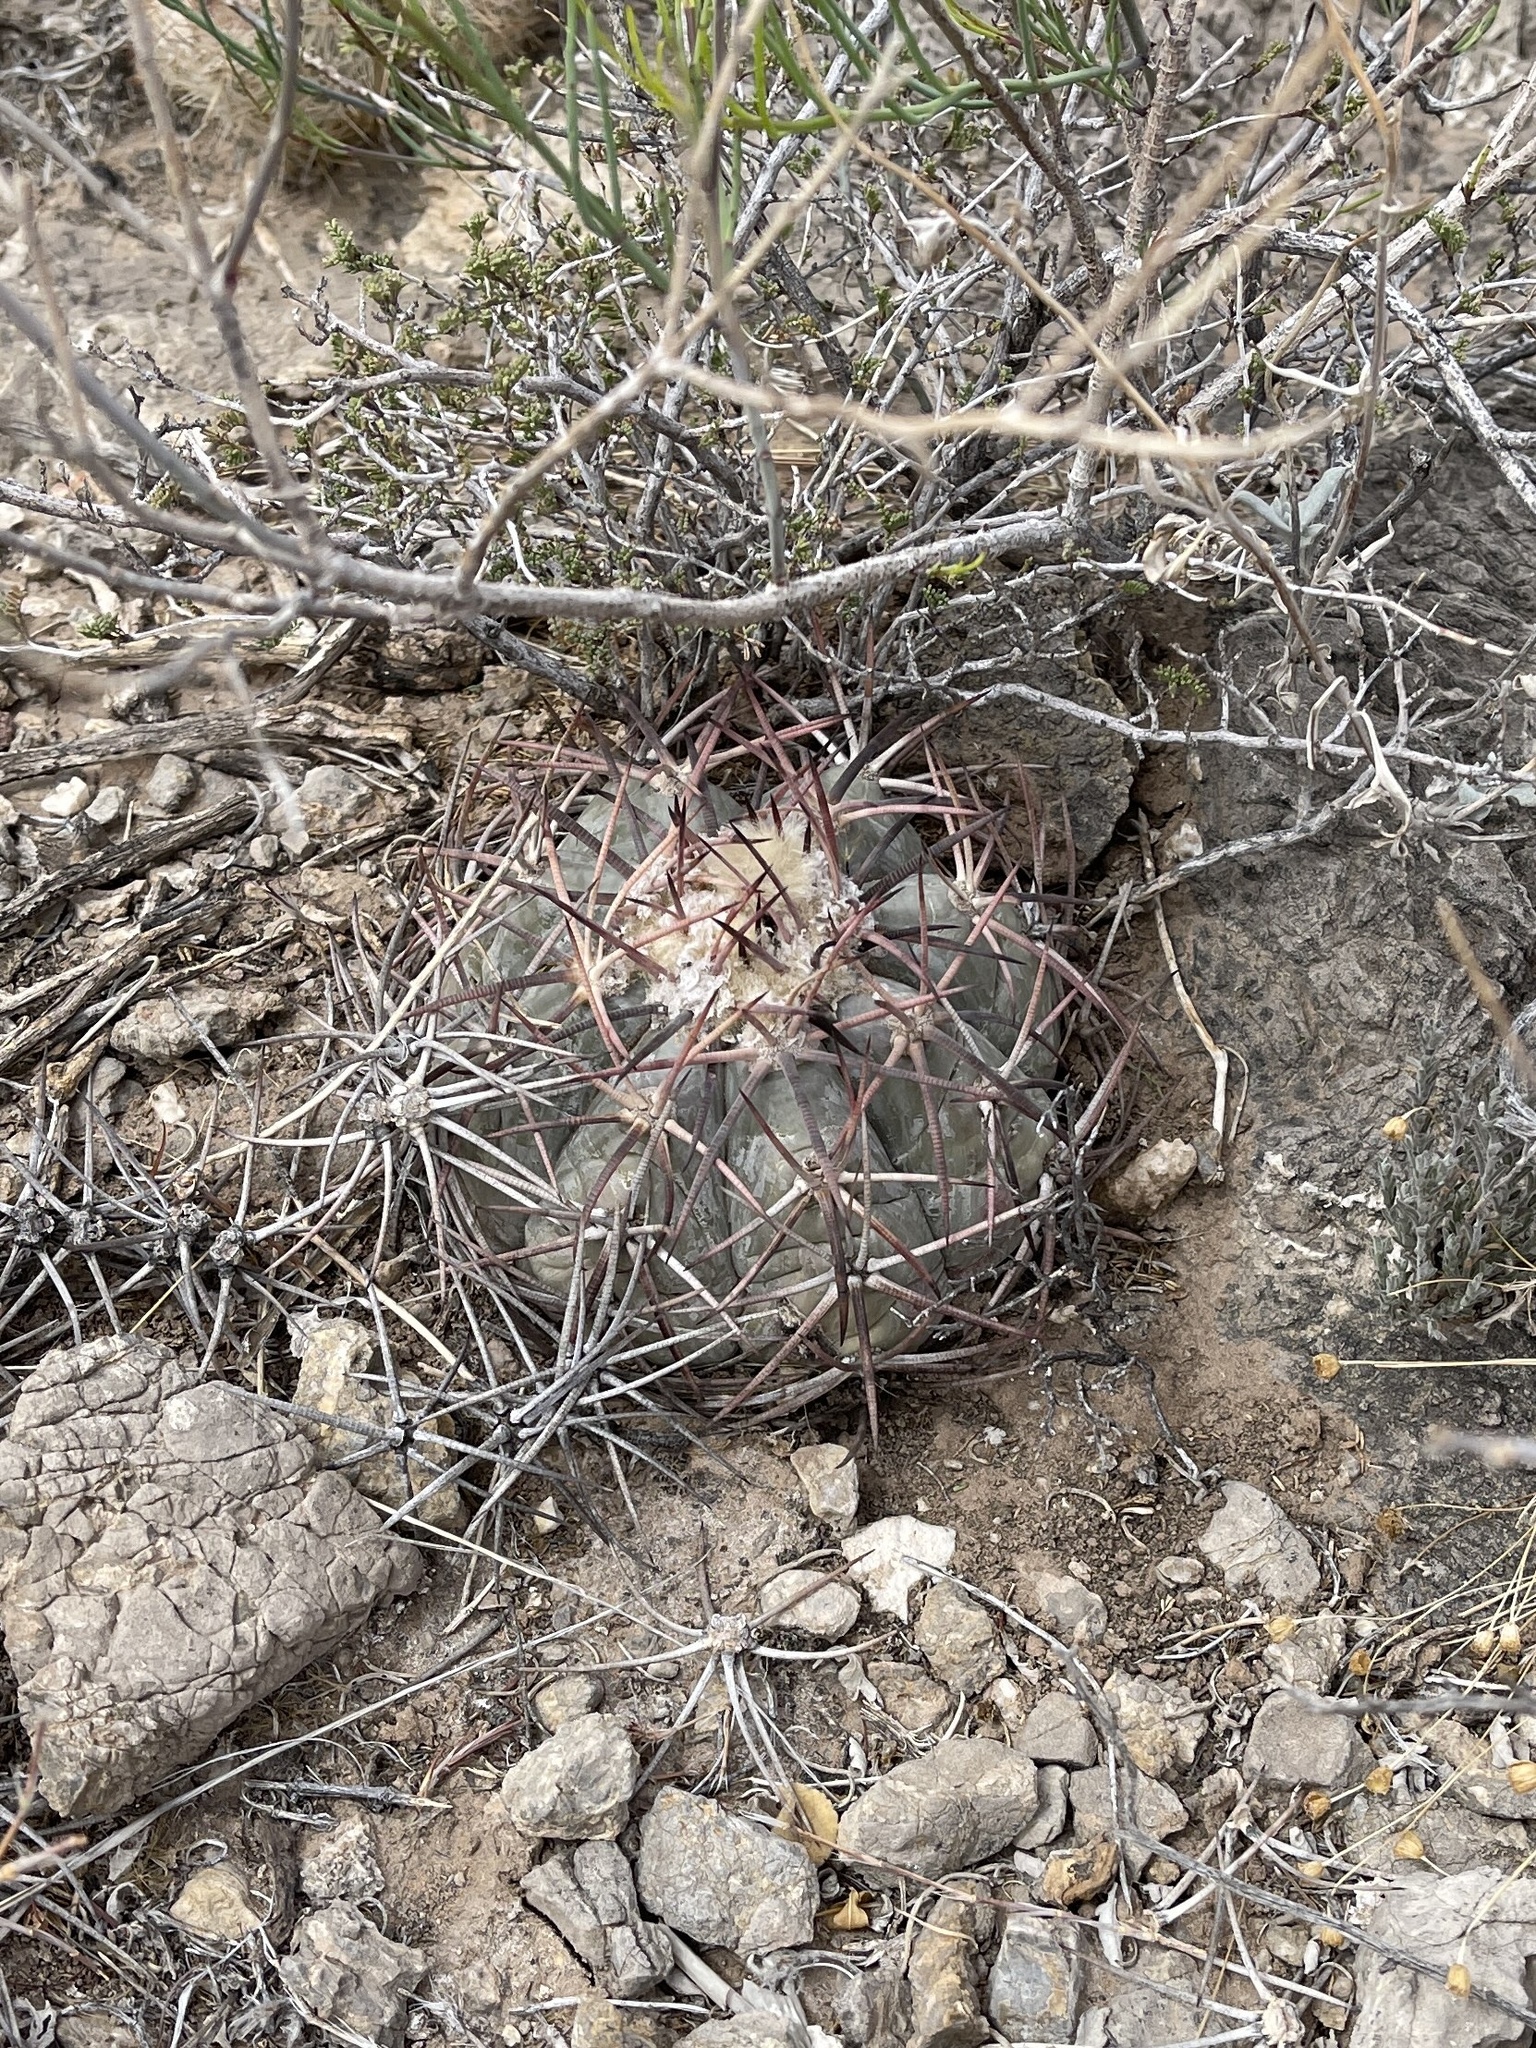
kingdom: Plantae
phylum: Tracheophyta
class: Magnoliopsida
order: Caryophyllales
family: Cactaceae
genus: Echinocactus
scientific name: Echinocactus horizonthalonius
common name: Devilshead
